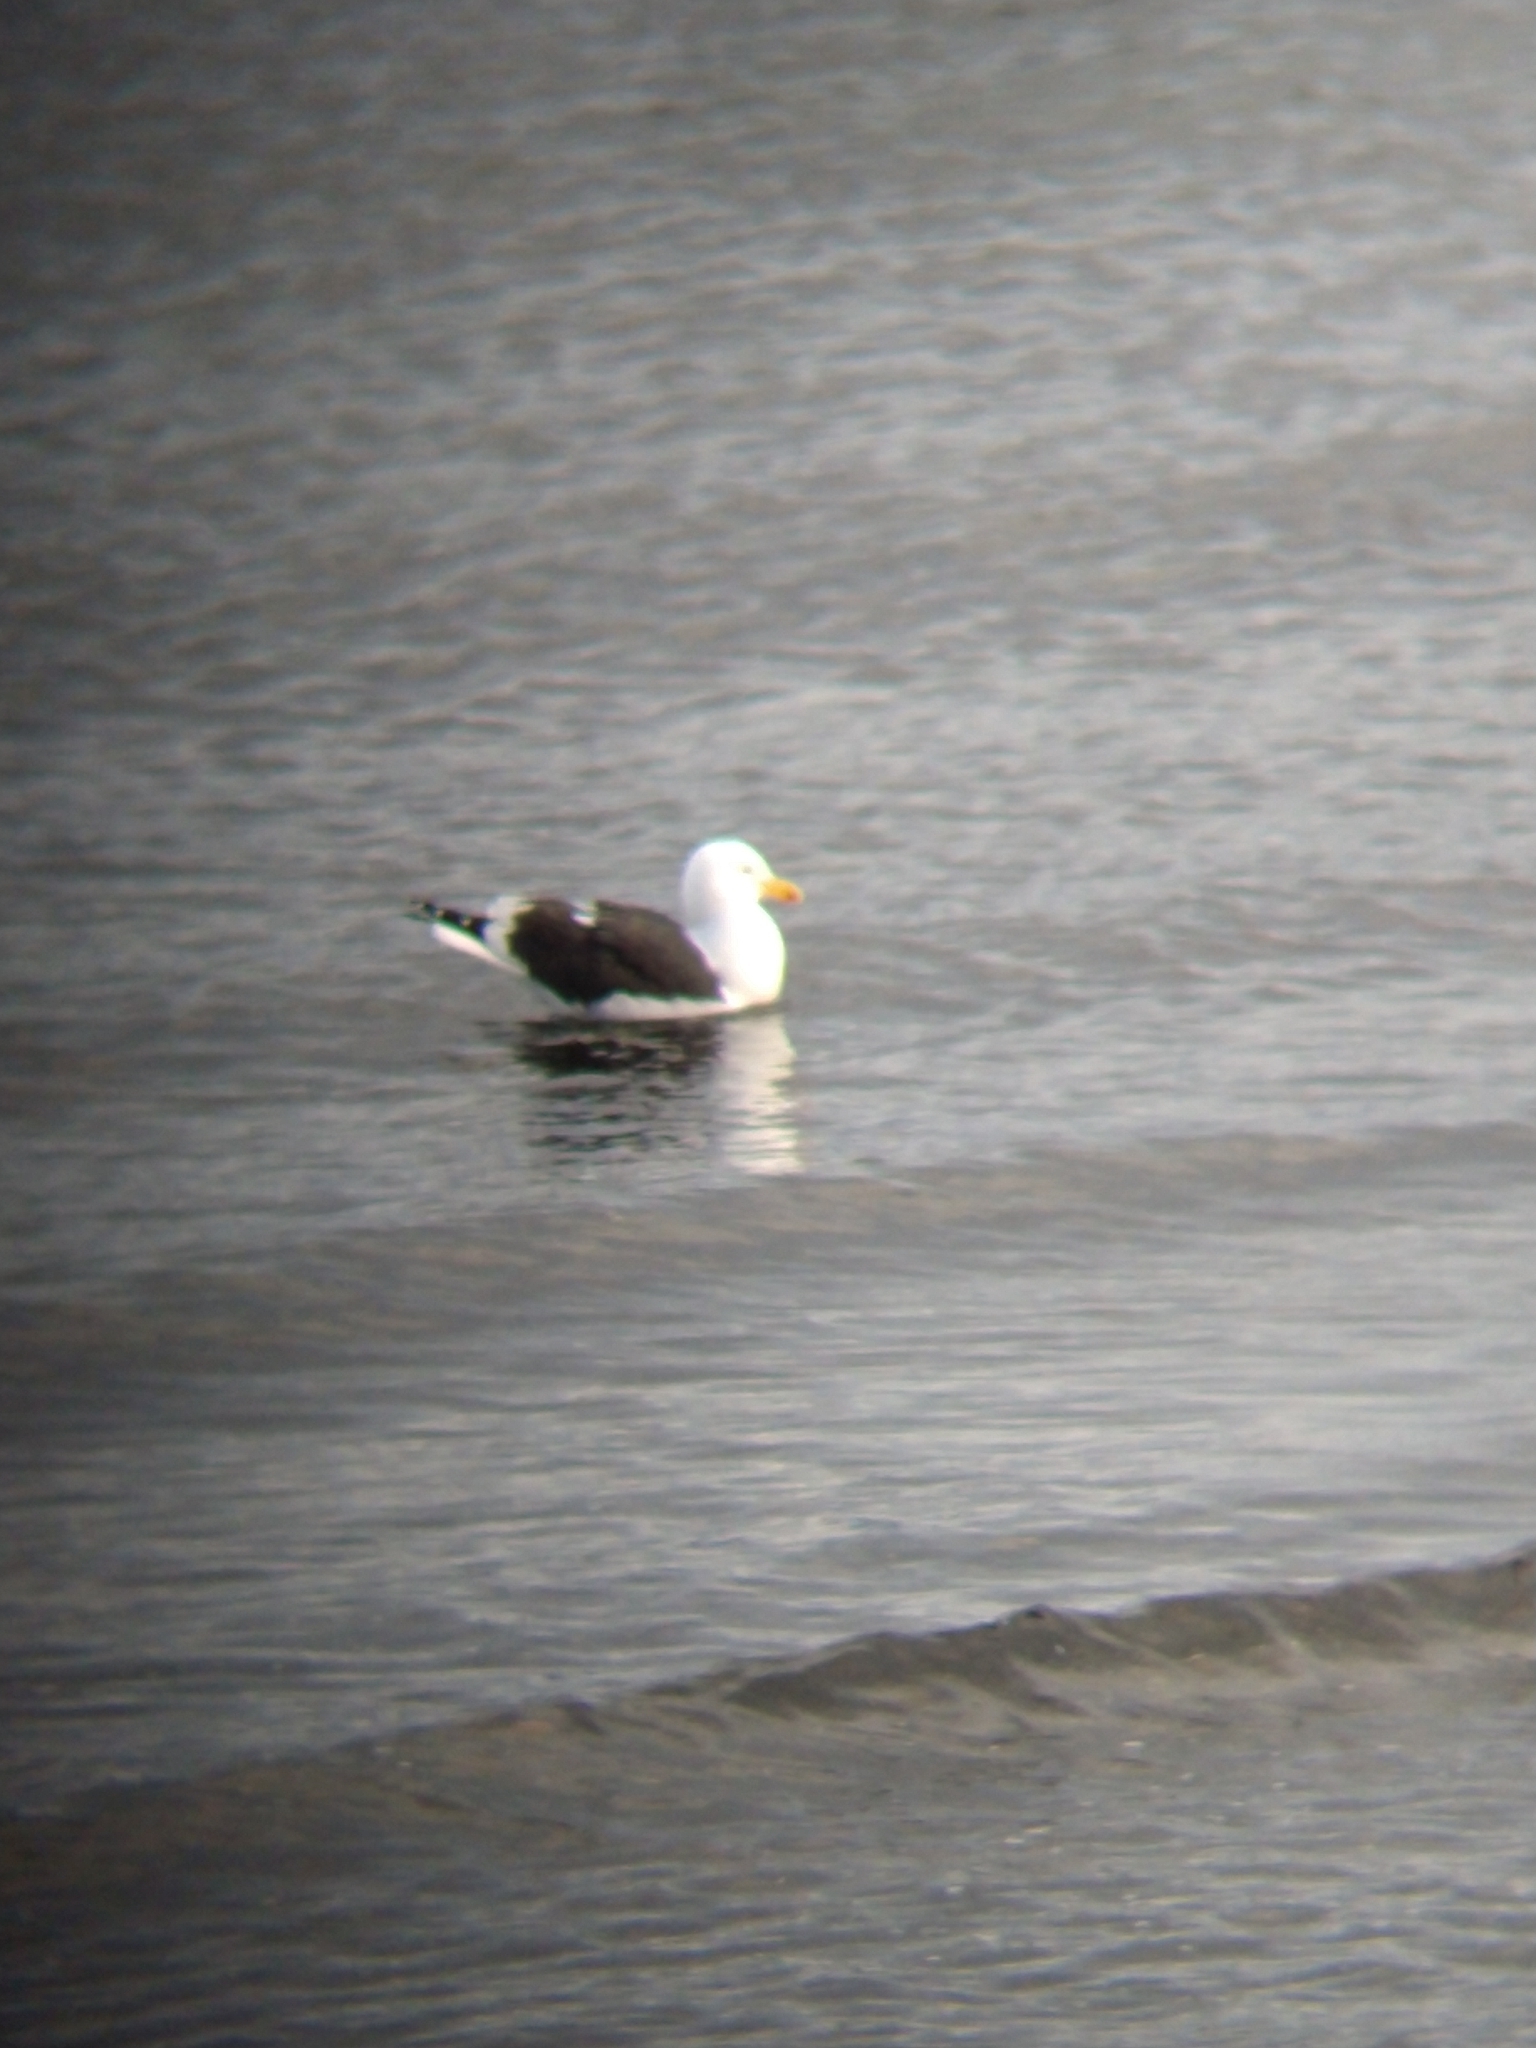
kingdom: Animalia
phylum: Chordata
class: Aves
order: Charadriiformes
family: Laridae
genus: Larus
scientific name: Larus dominicanus
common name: Kelp gull
